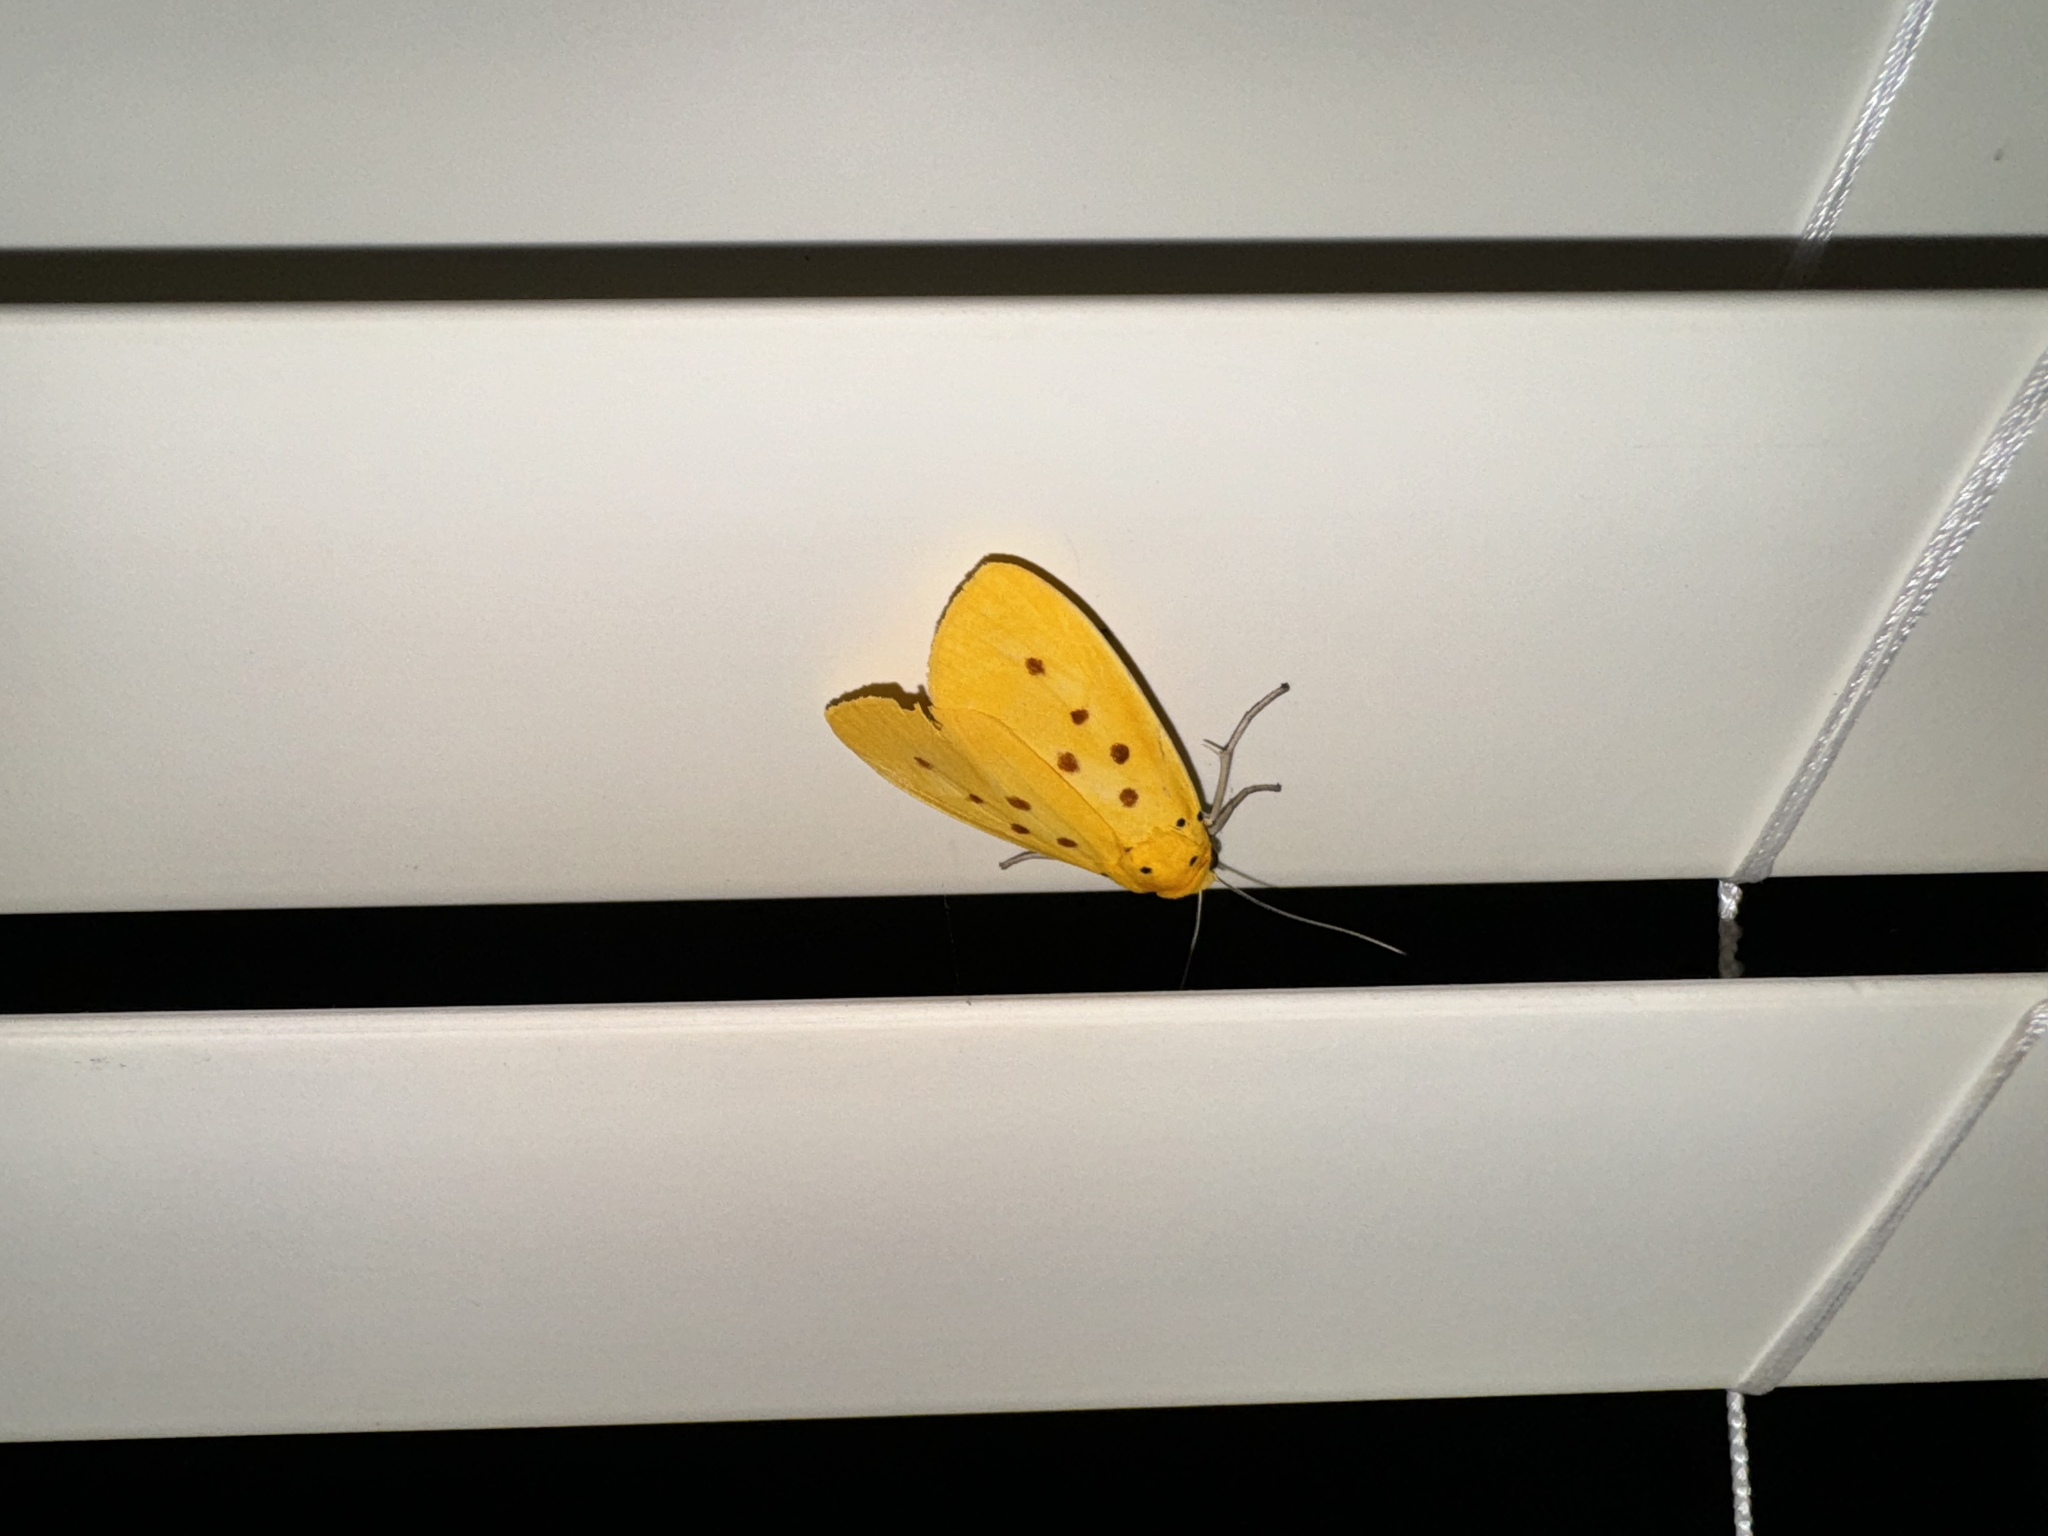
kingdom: Animalia
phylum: Arthropoda
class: Insecta
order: Lepidoptera
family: Noctuidae
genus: Agape
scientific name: Agape chloropyga
